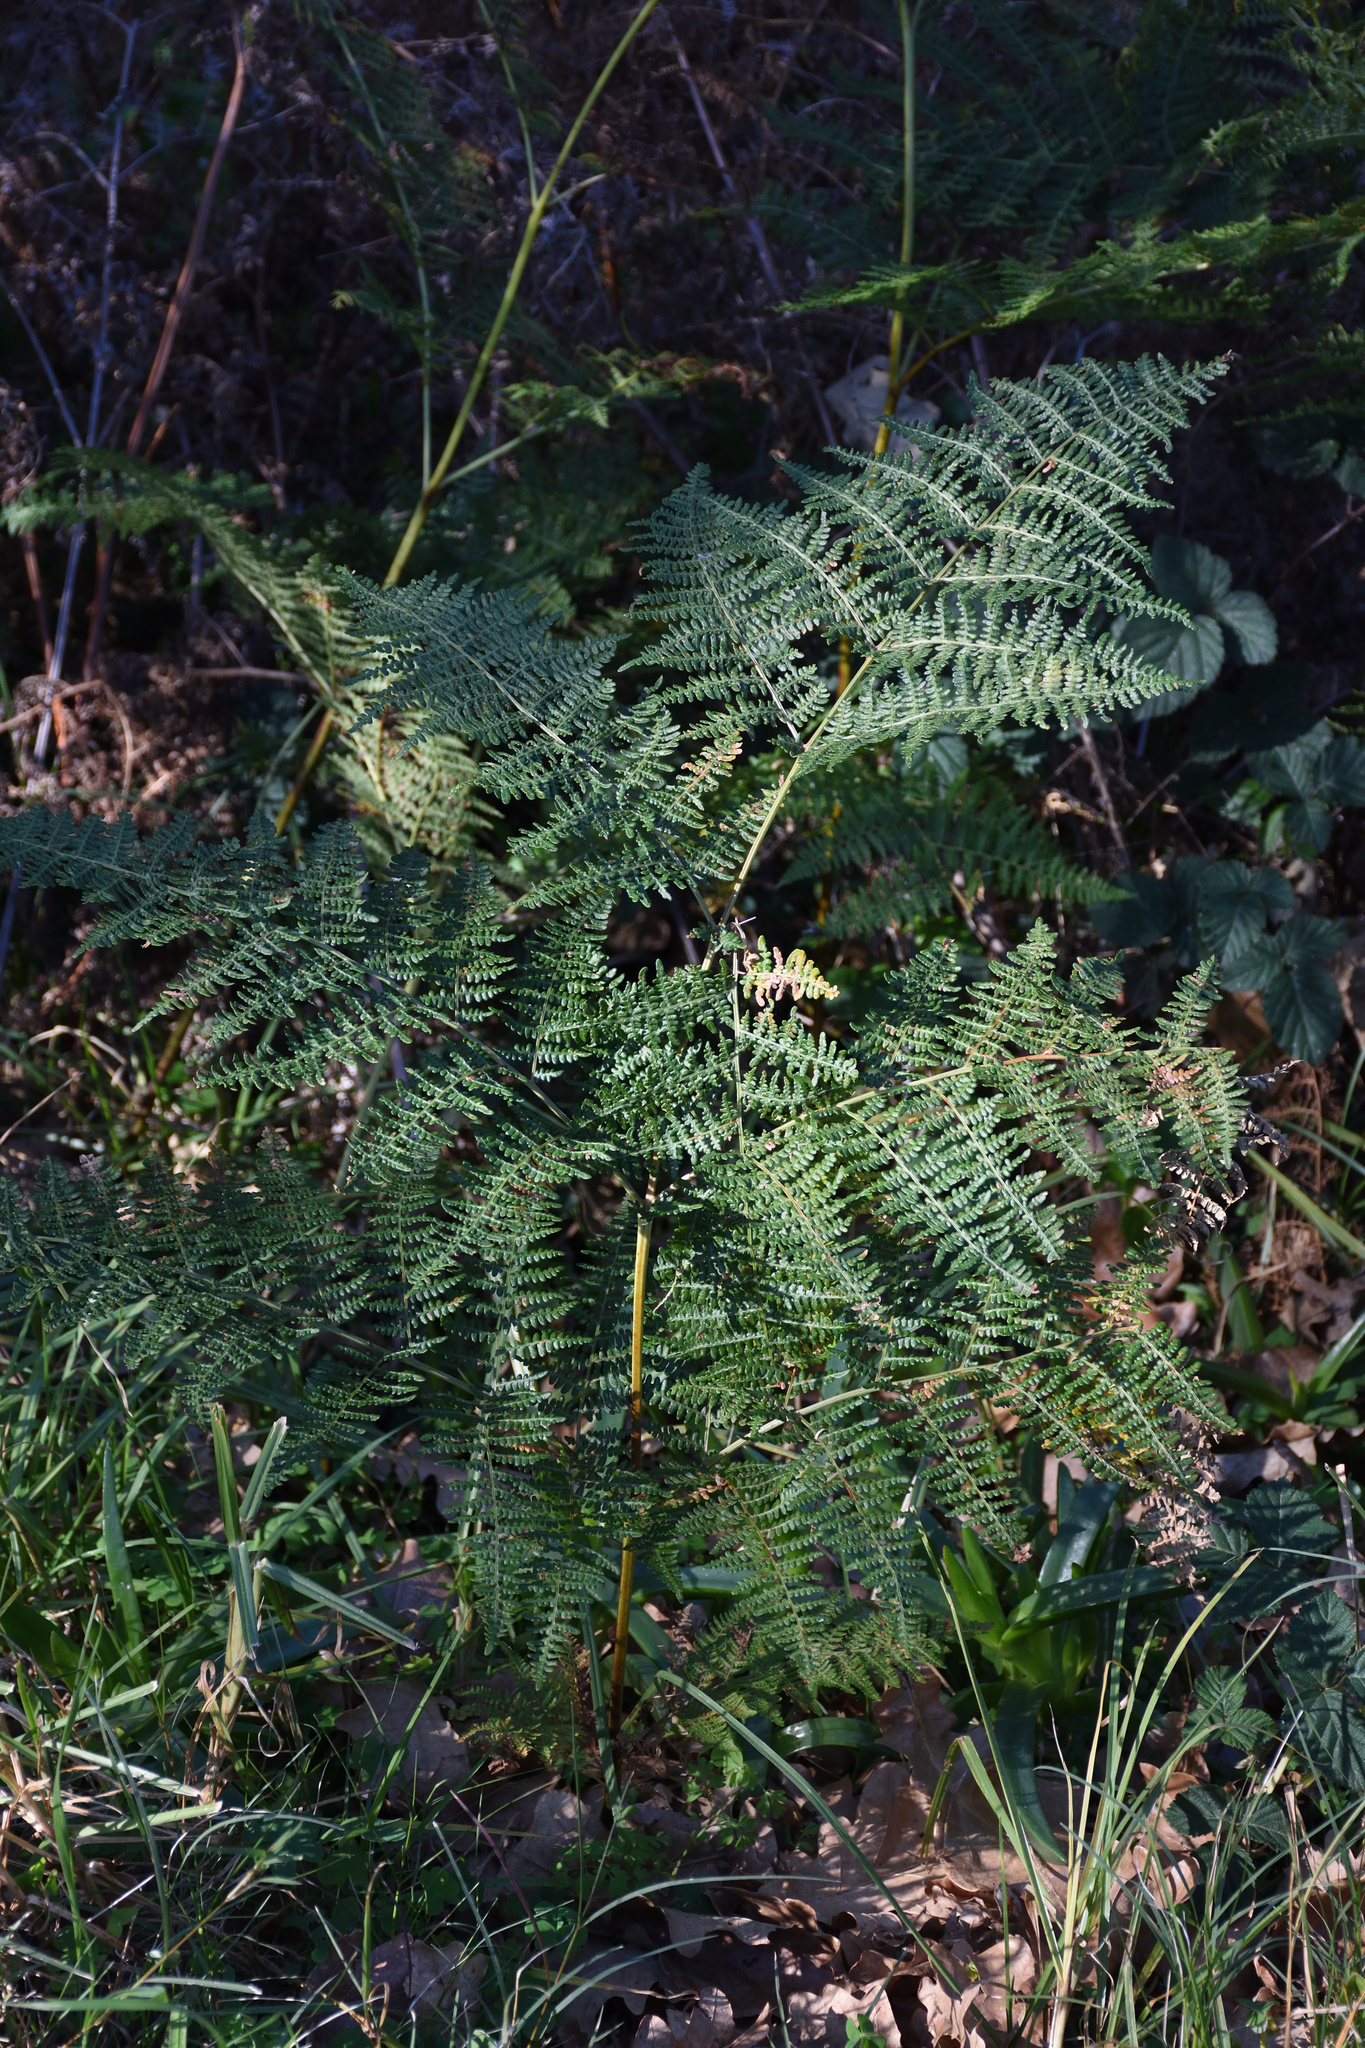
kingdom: Plantae
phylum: Tracheophyta
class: Polypodiopsida
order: Polypodiales
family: Dennstaedtiaceae
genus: Pteridium
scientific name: Pteridium aquilinum
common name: Bracken
